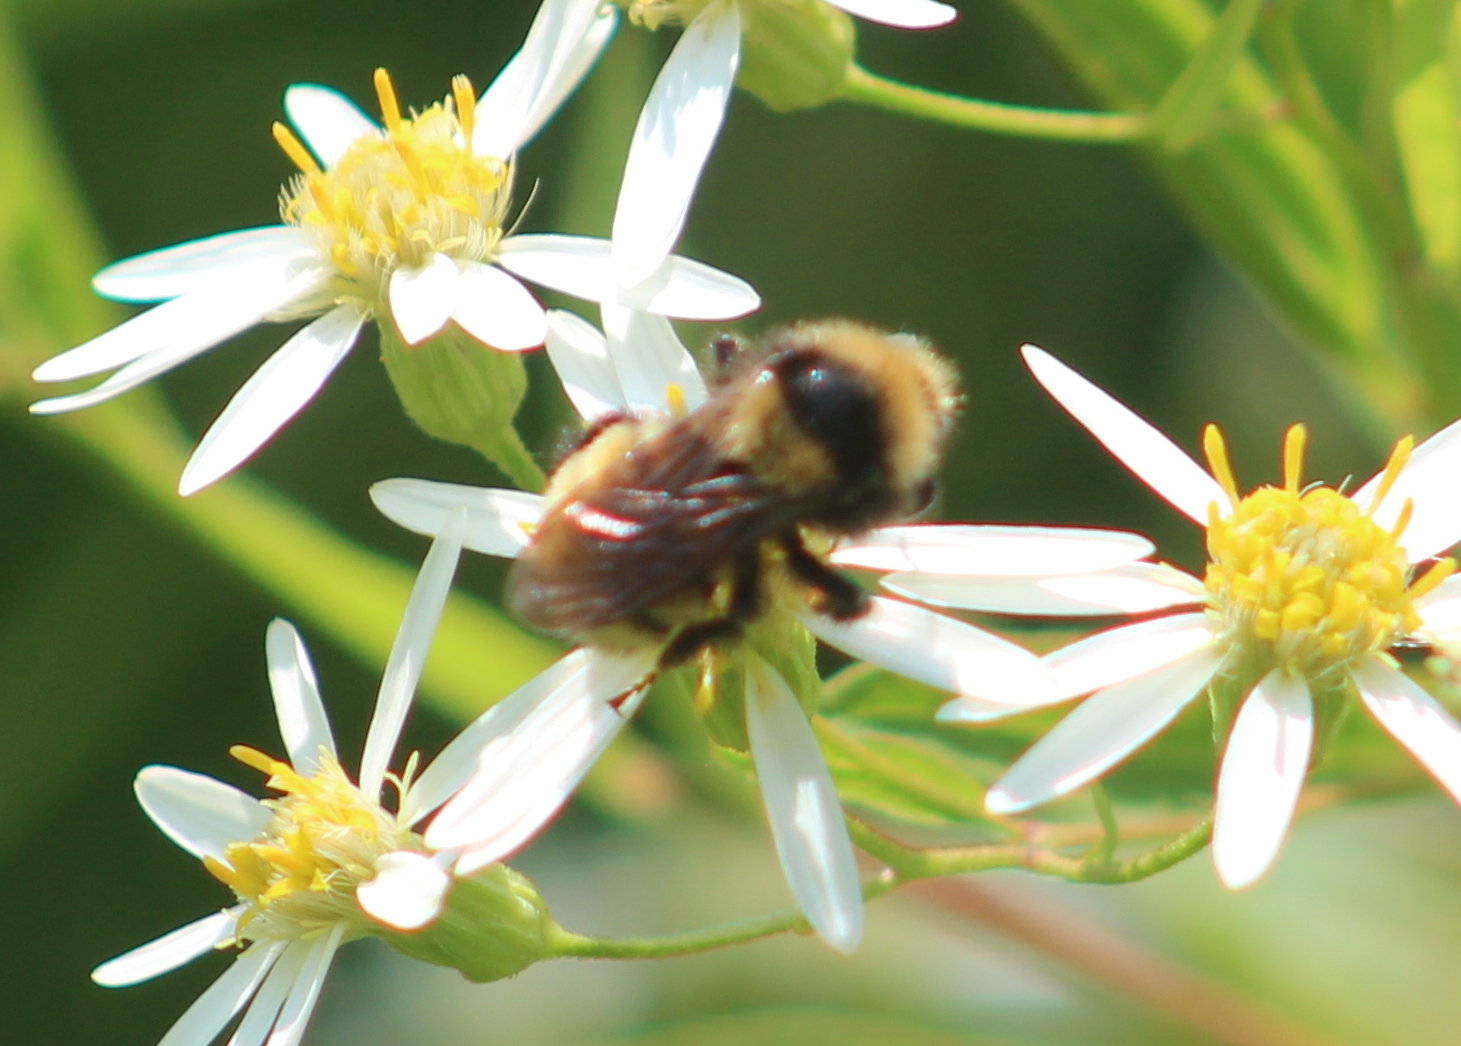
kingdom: Animalia
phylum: Arthropoda
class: Insecta
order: Hymenoptera
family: Apidae
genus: Bombus
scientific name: Bombus borealis
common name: Northern amber bumble bee
